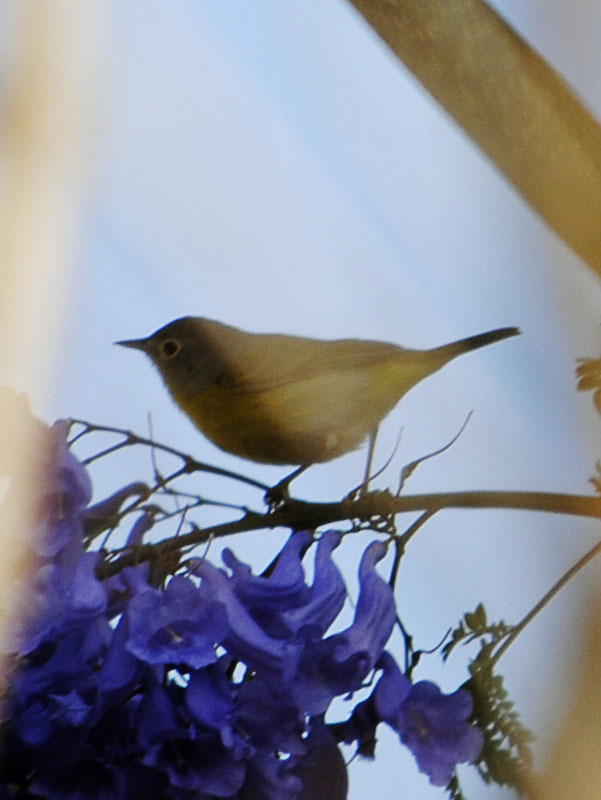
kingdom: Animalia
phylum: Chordata
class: Aves
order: Passeriformes
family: Parulidae
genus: Leiothlypis
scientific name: Leiothlypis ruficapilla
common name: Nashville warbler
